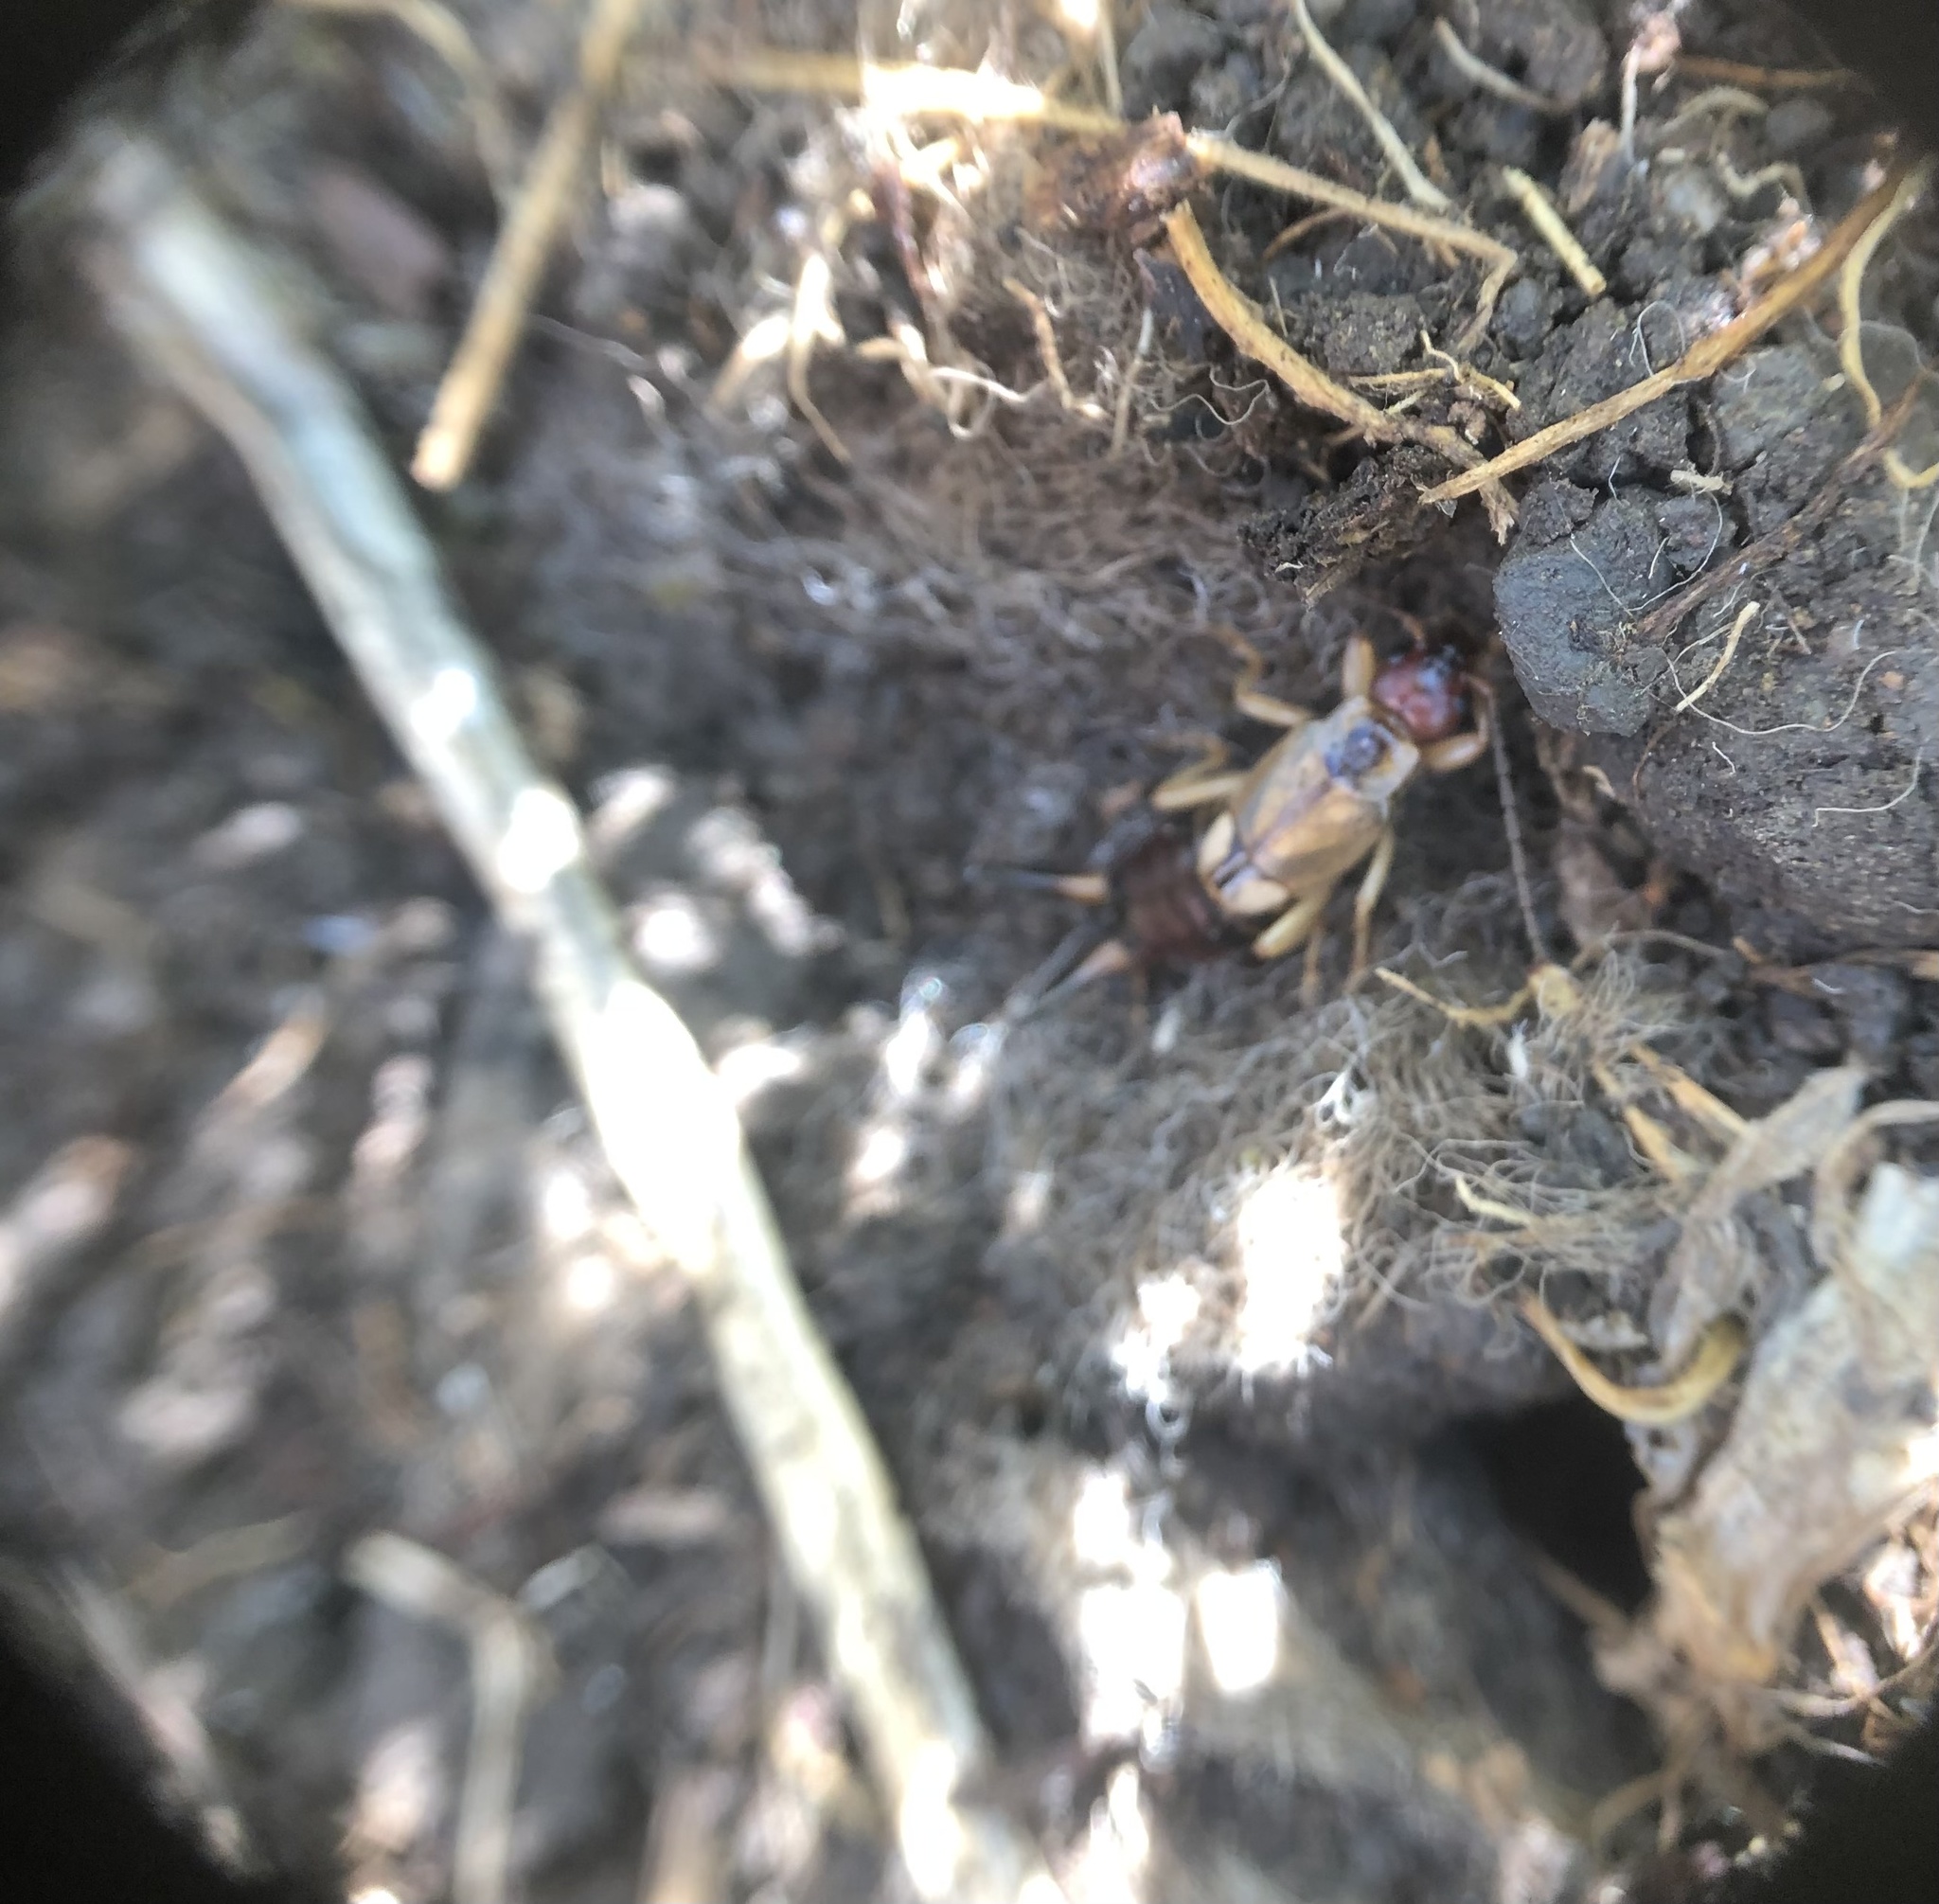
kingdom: Animalia
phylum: Arthropoda
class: Insecta
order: Dermaptera
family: Forficulidae
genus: Forficula
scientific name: Forficula
